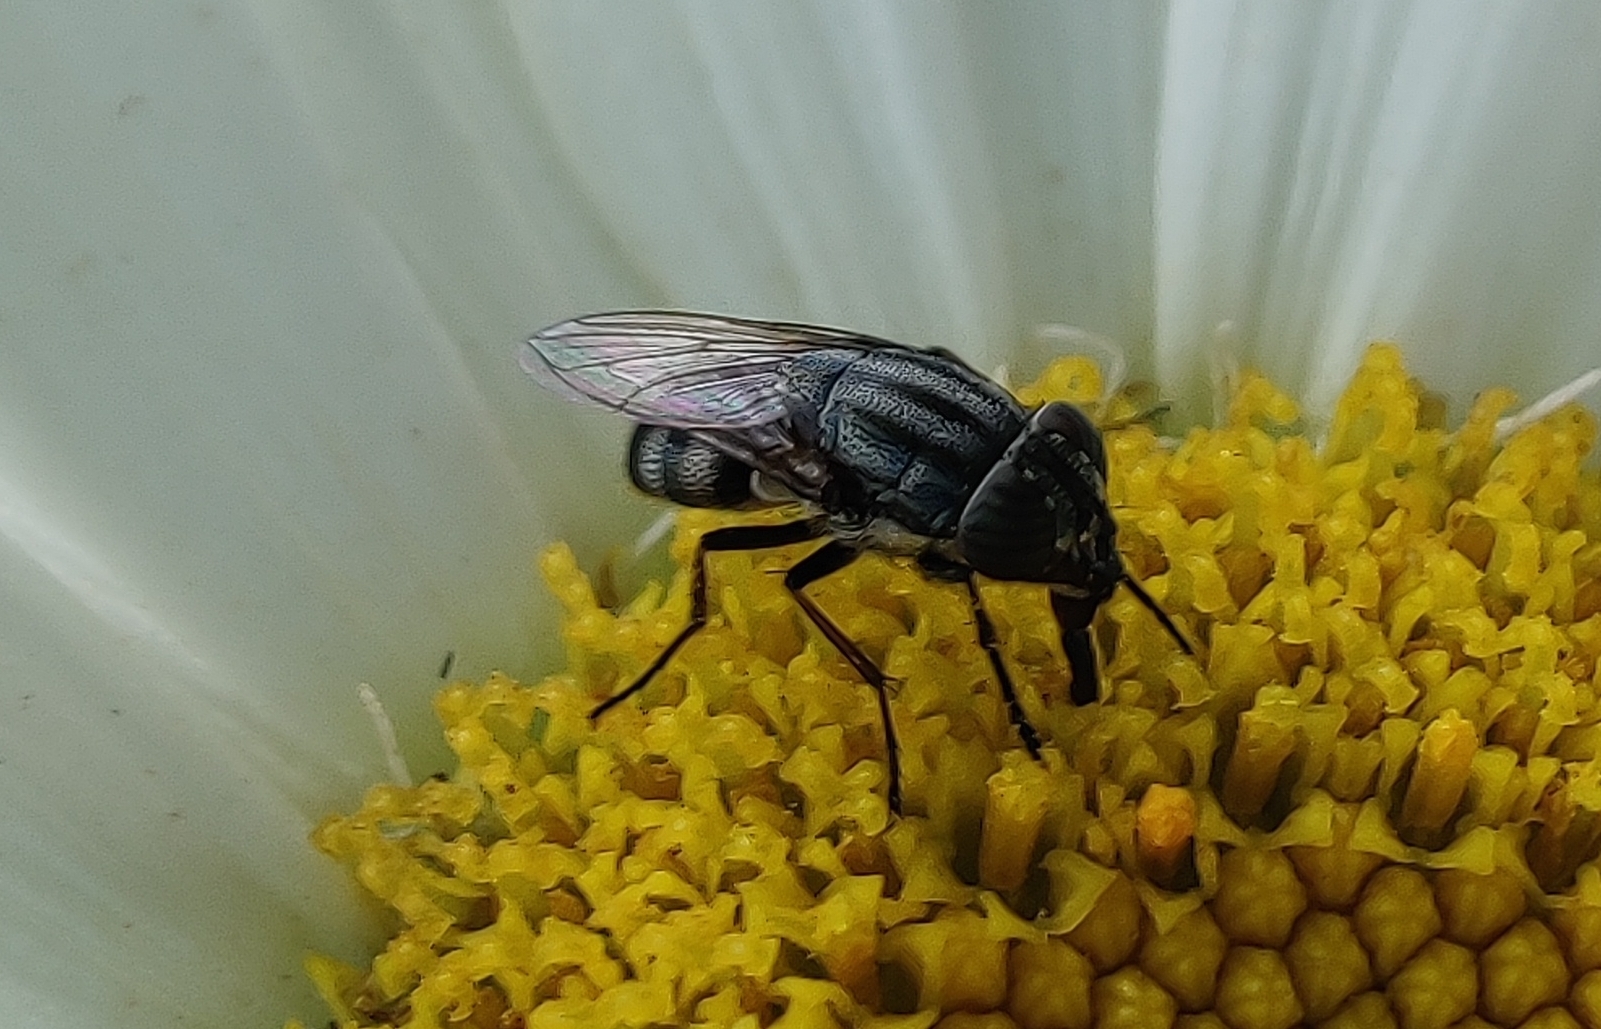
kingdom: Animalia
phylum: Arthropoda
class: Insecta
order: Diptera
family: Calliphoridae
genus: Stomorhina
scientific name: Stomorhina lunata
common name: Locust blowfly
